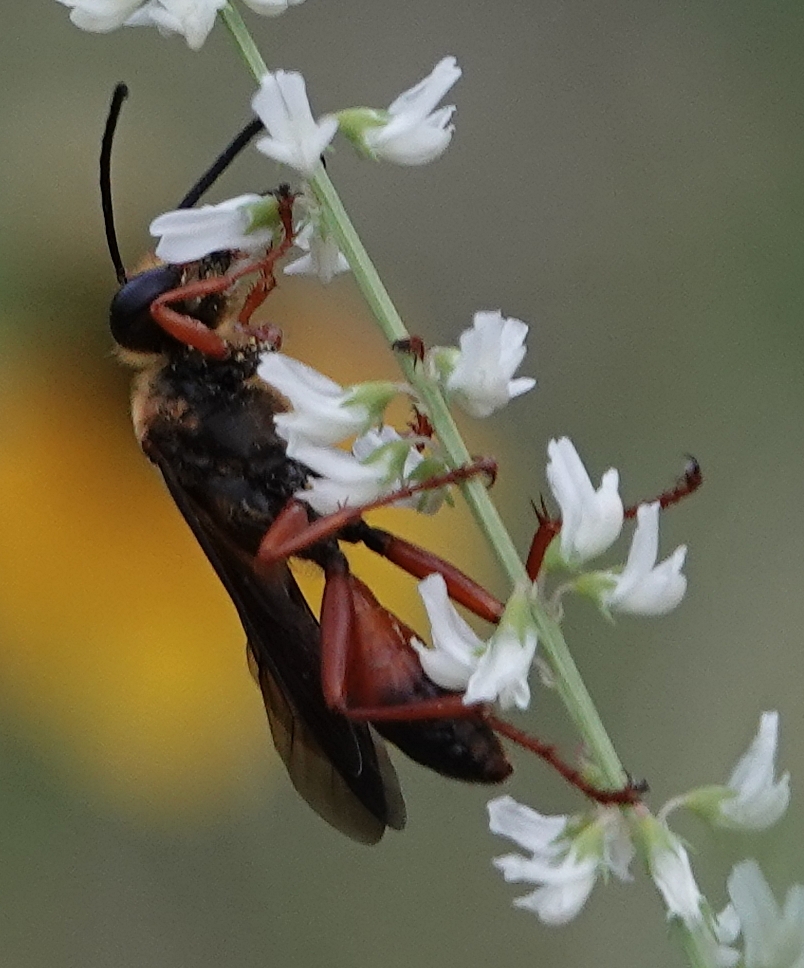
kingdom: Animalia
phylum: Arthropoda
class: Insecta
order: Hymenoptera
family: Sphecidae
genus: Sphex
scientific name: Sphex ichneumoneus
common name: Great golden digger wasp
